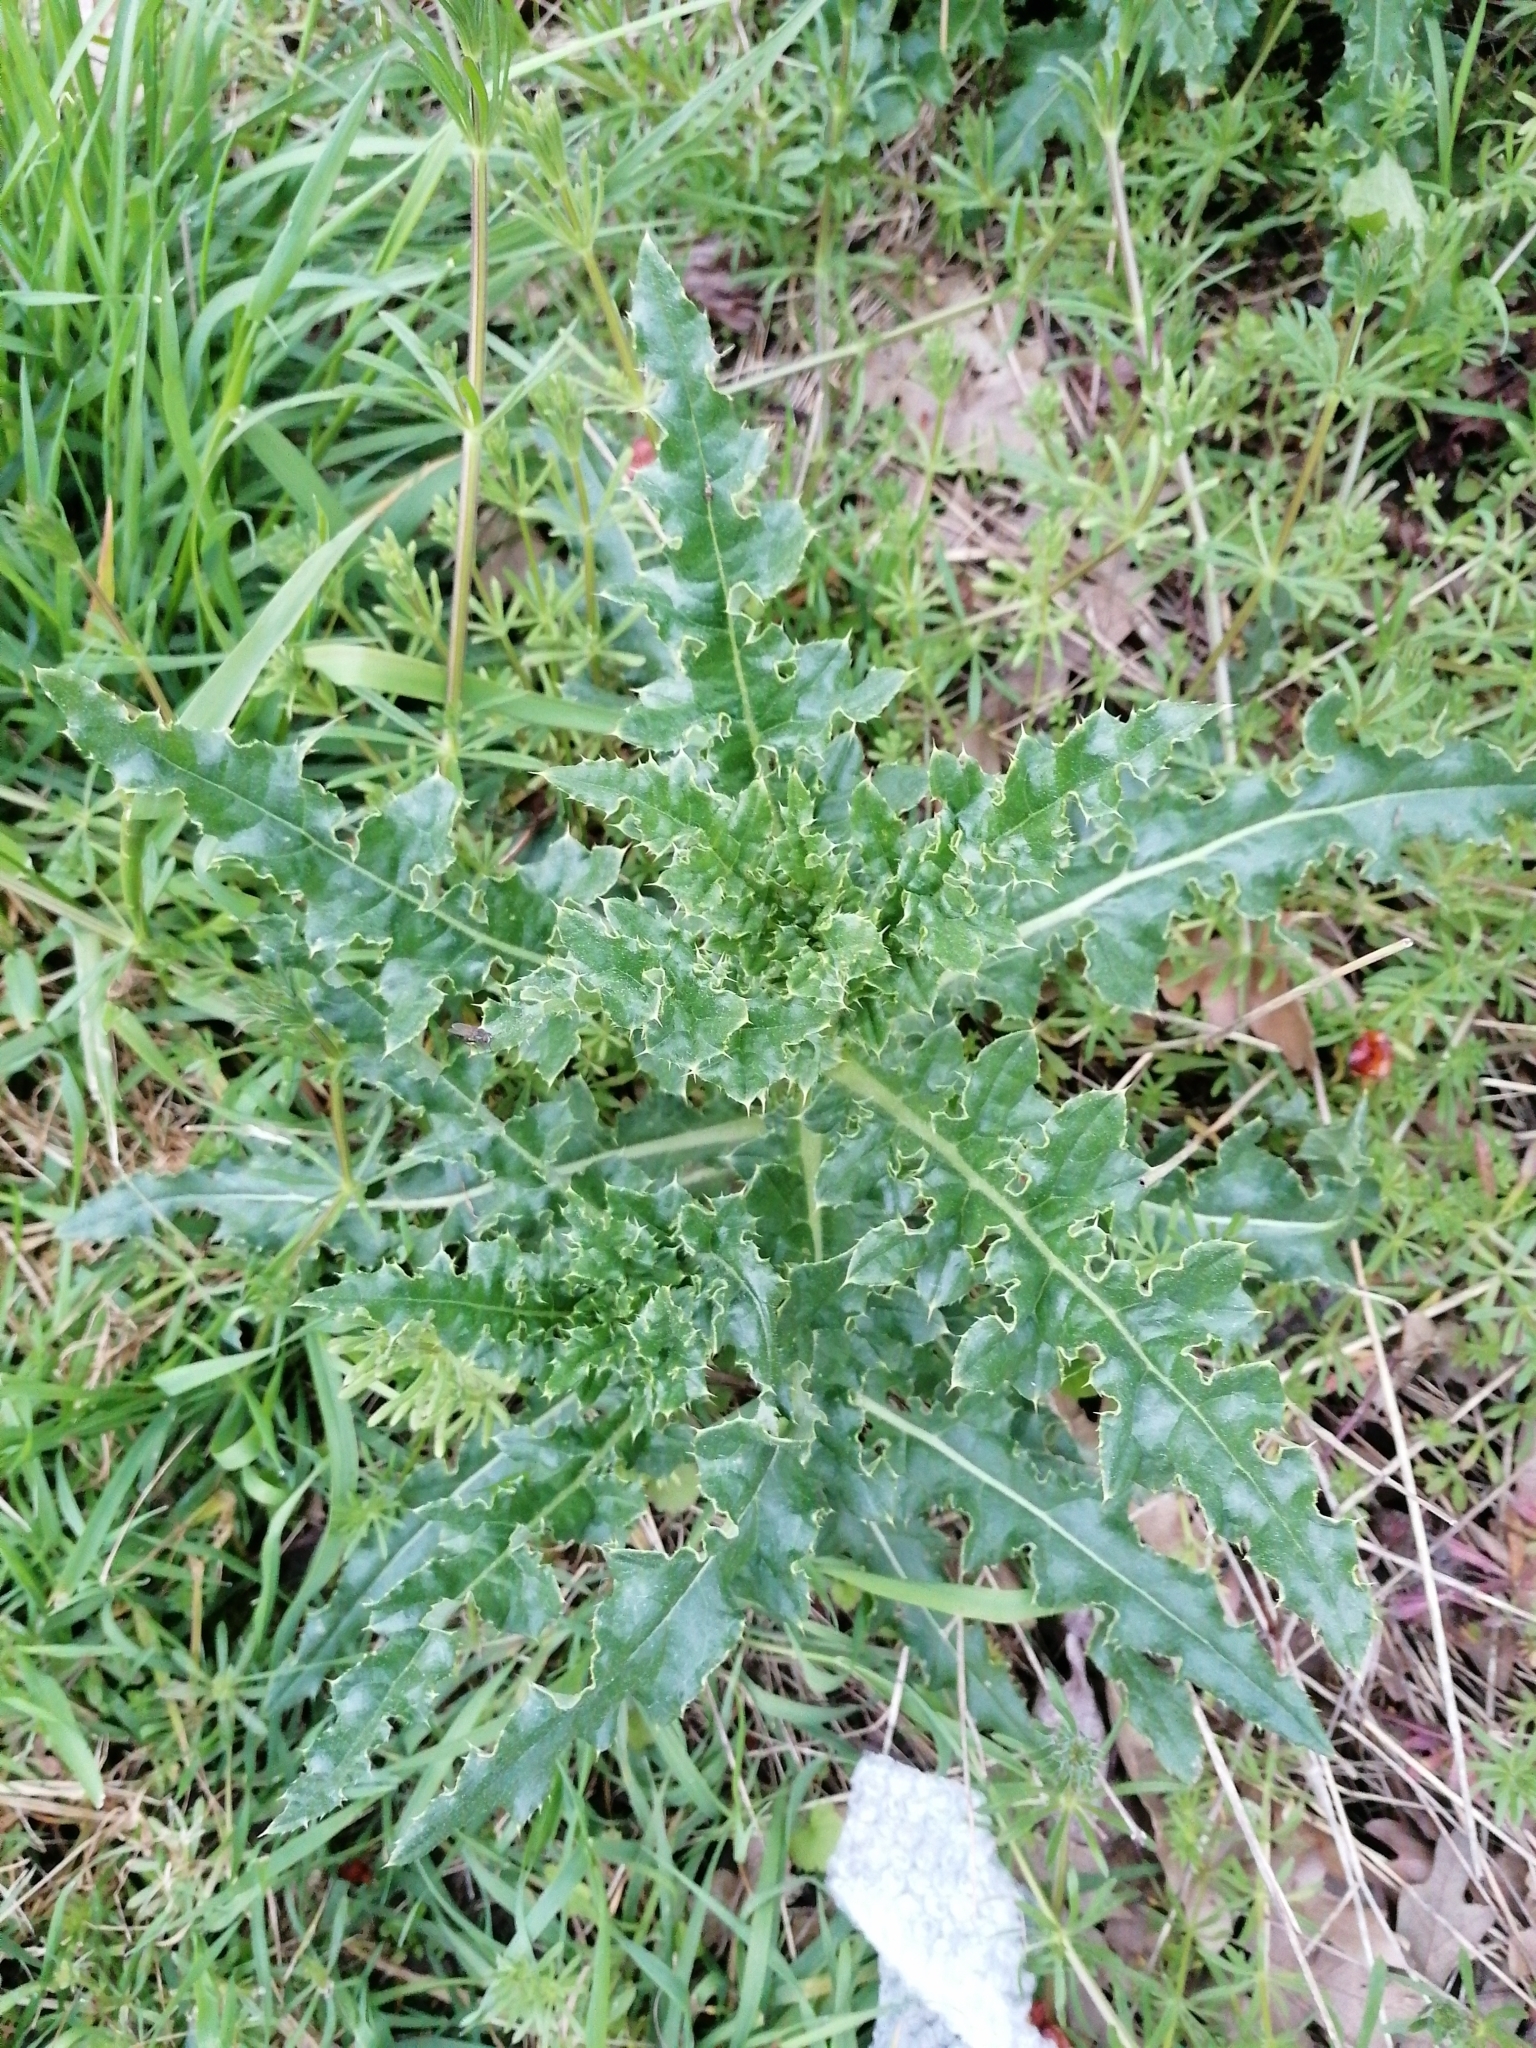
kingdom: Plantae
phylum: Tracheophyta
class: Magnoliopsida
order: Asterales
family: Asteraceae
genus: Cirsium
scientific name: Cirsium arvense
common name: Creeping thistle
